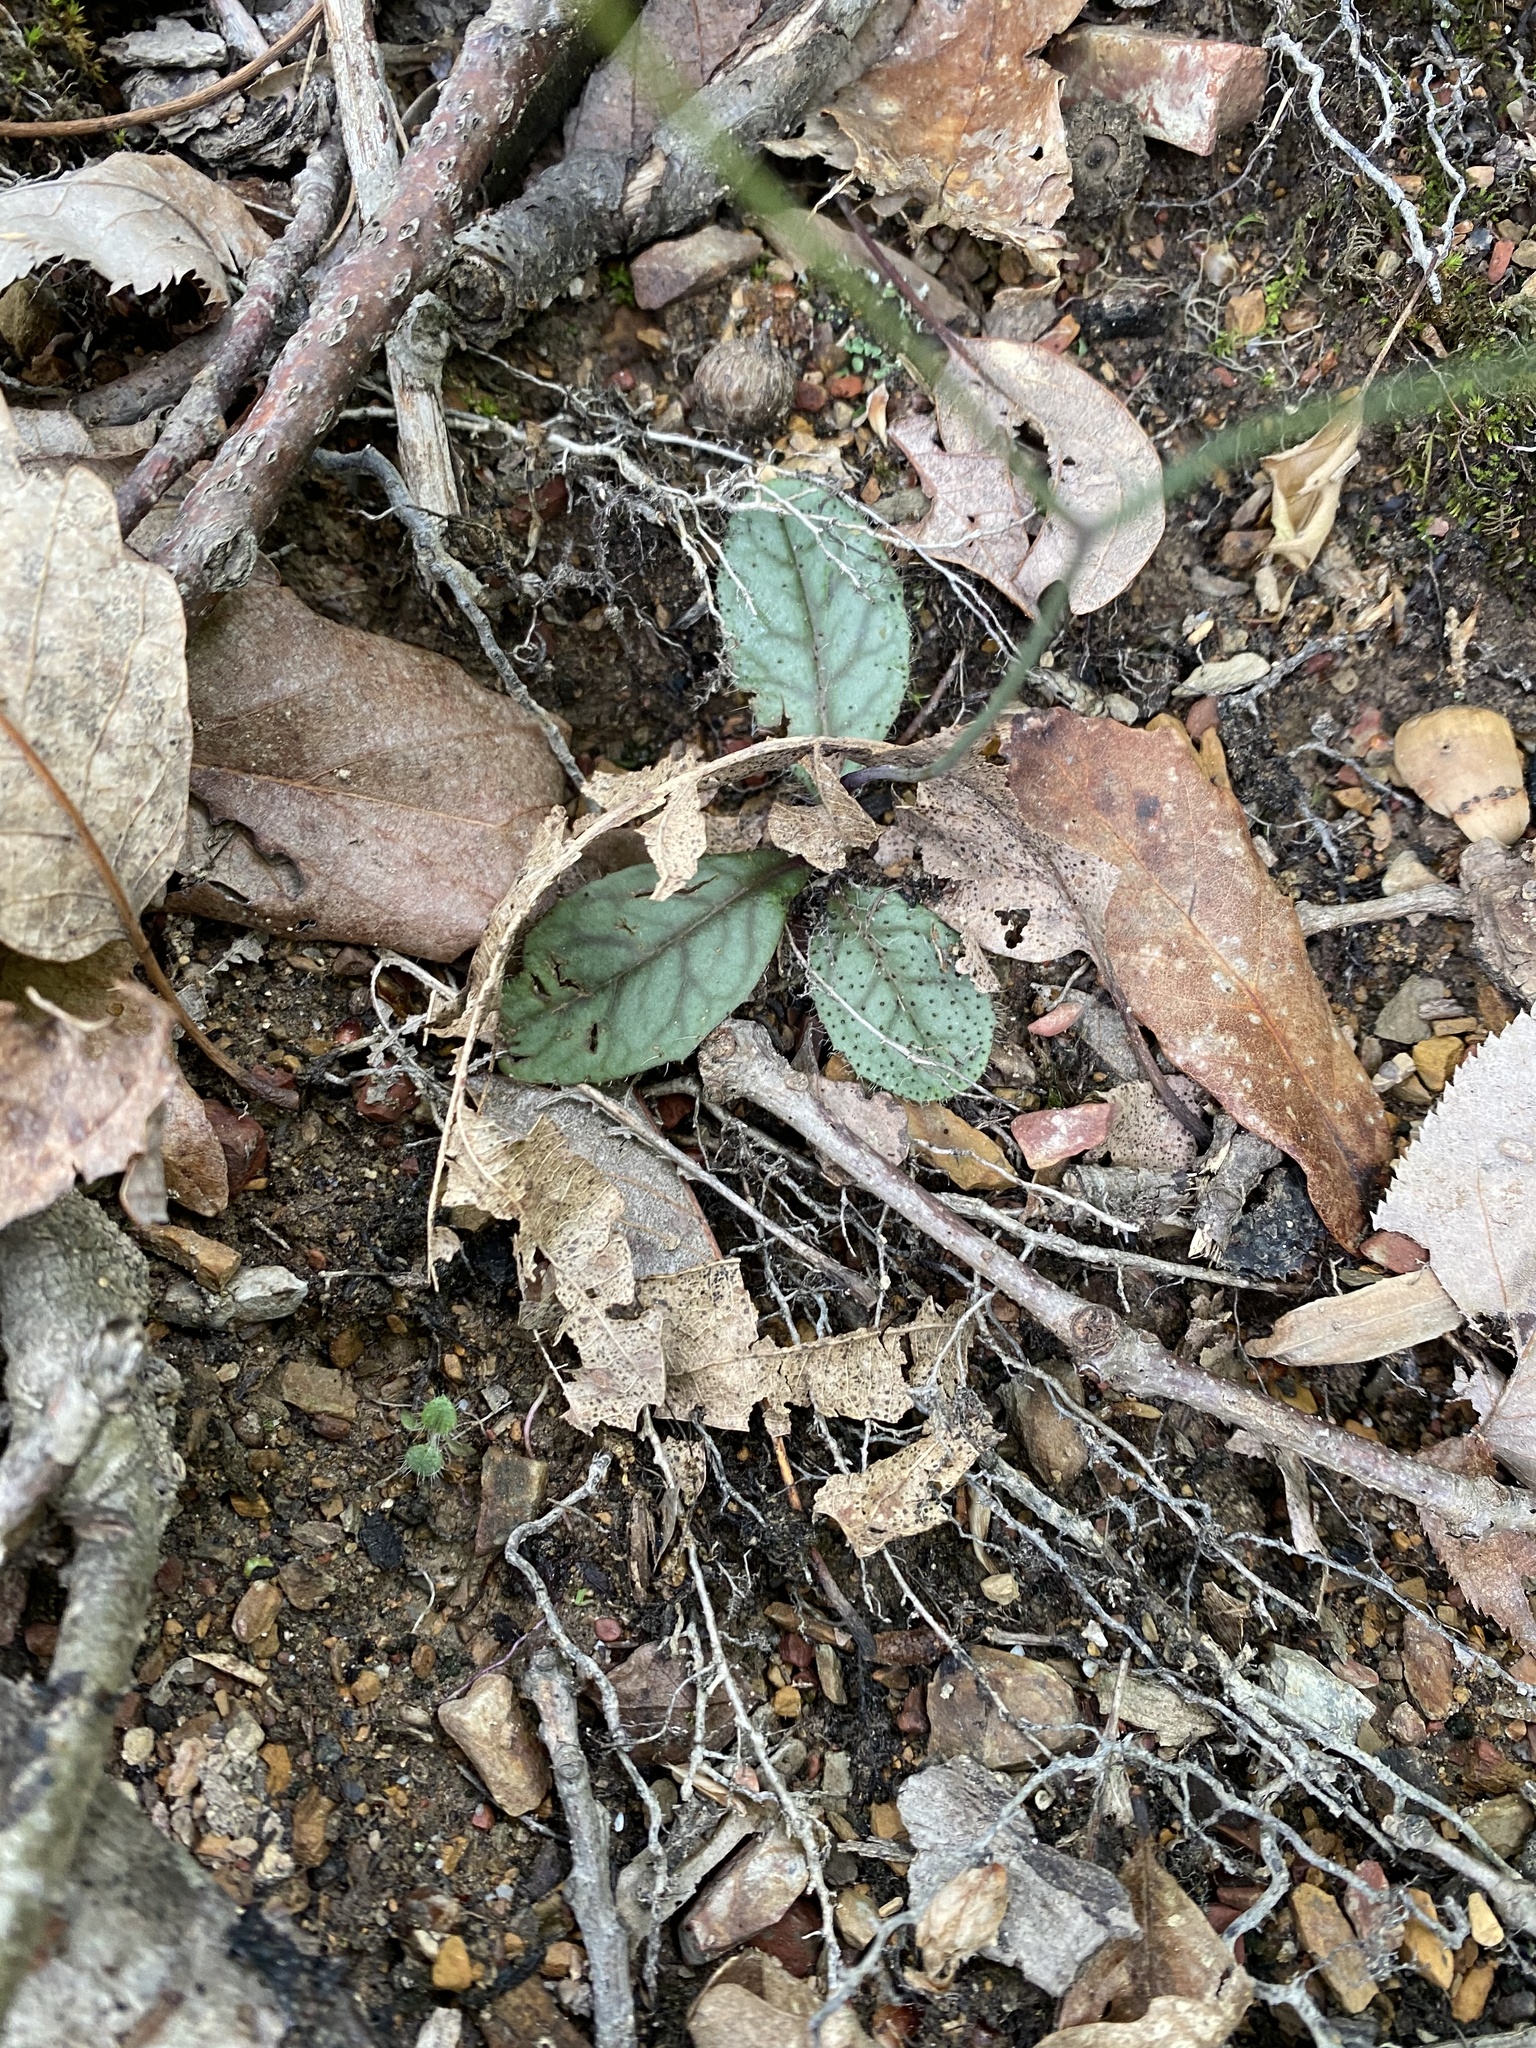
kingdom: Plantae
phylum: Tracheophyta
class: Magnoliopsida
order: Asterales
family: Asteraceae
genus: Hieracium
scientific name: Hieracium venosum
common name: Rattlesnake hawkweed
